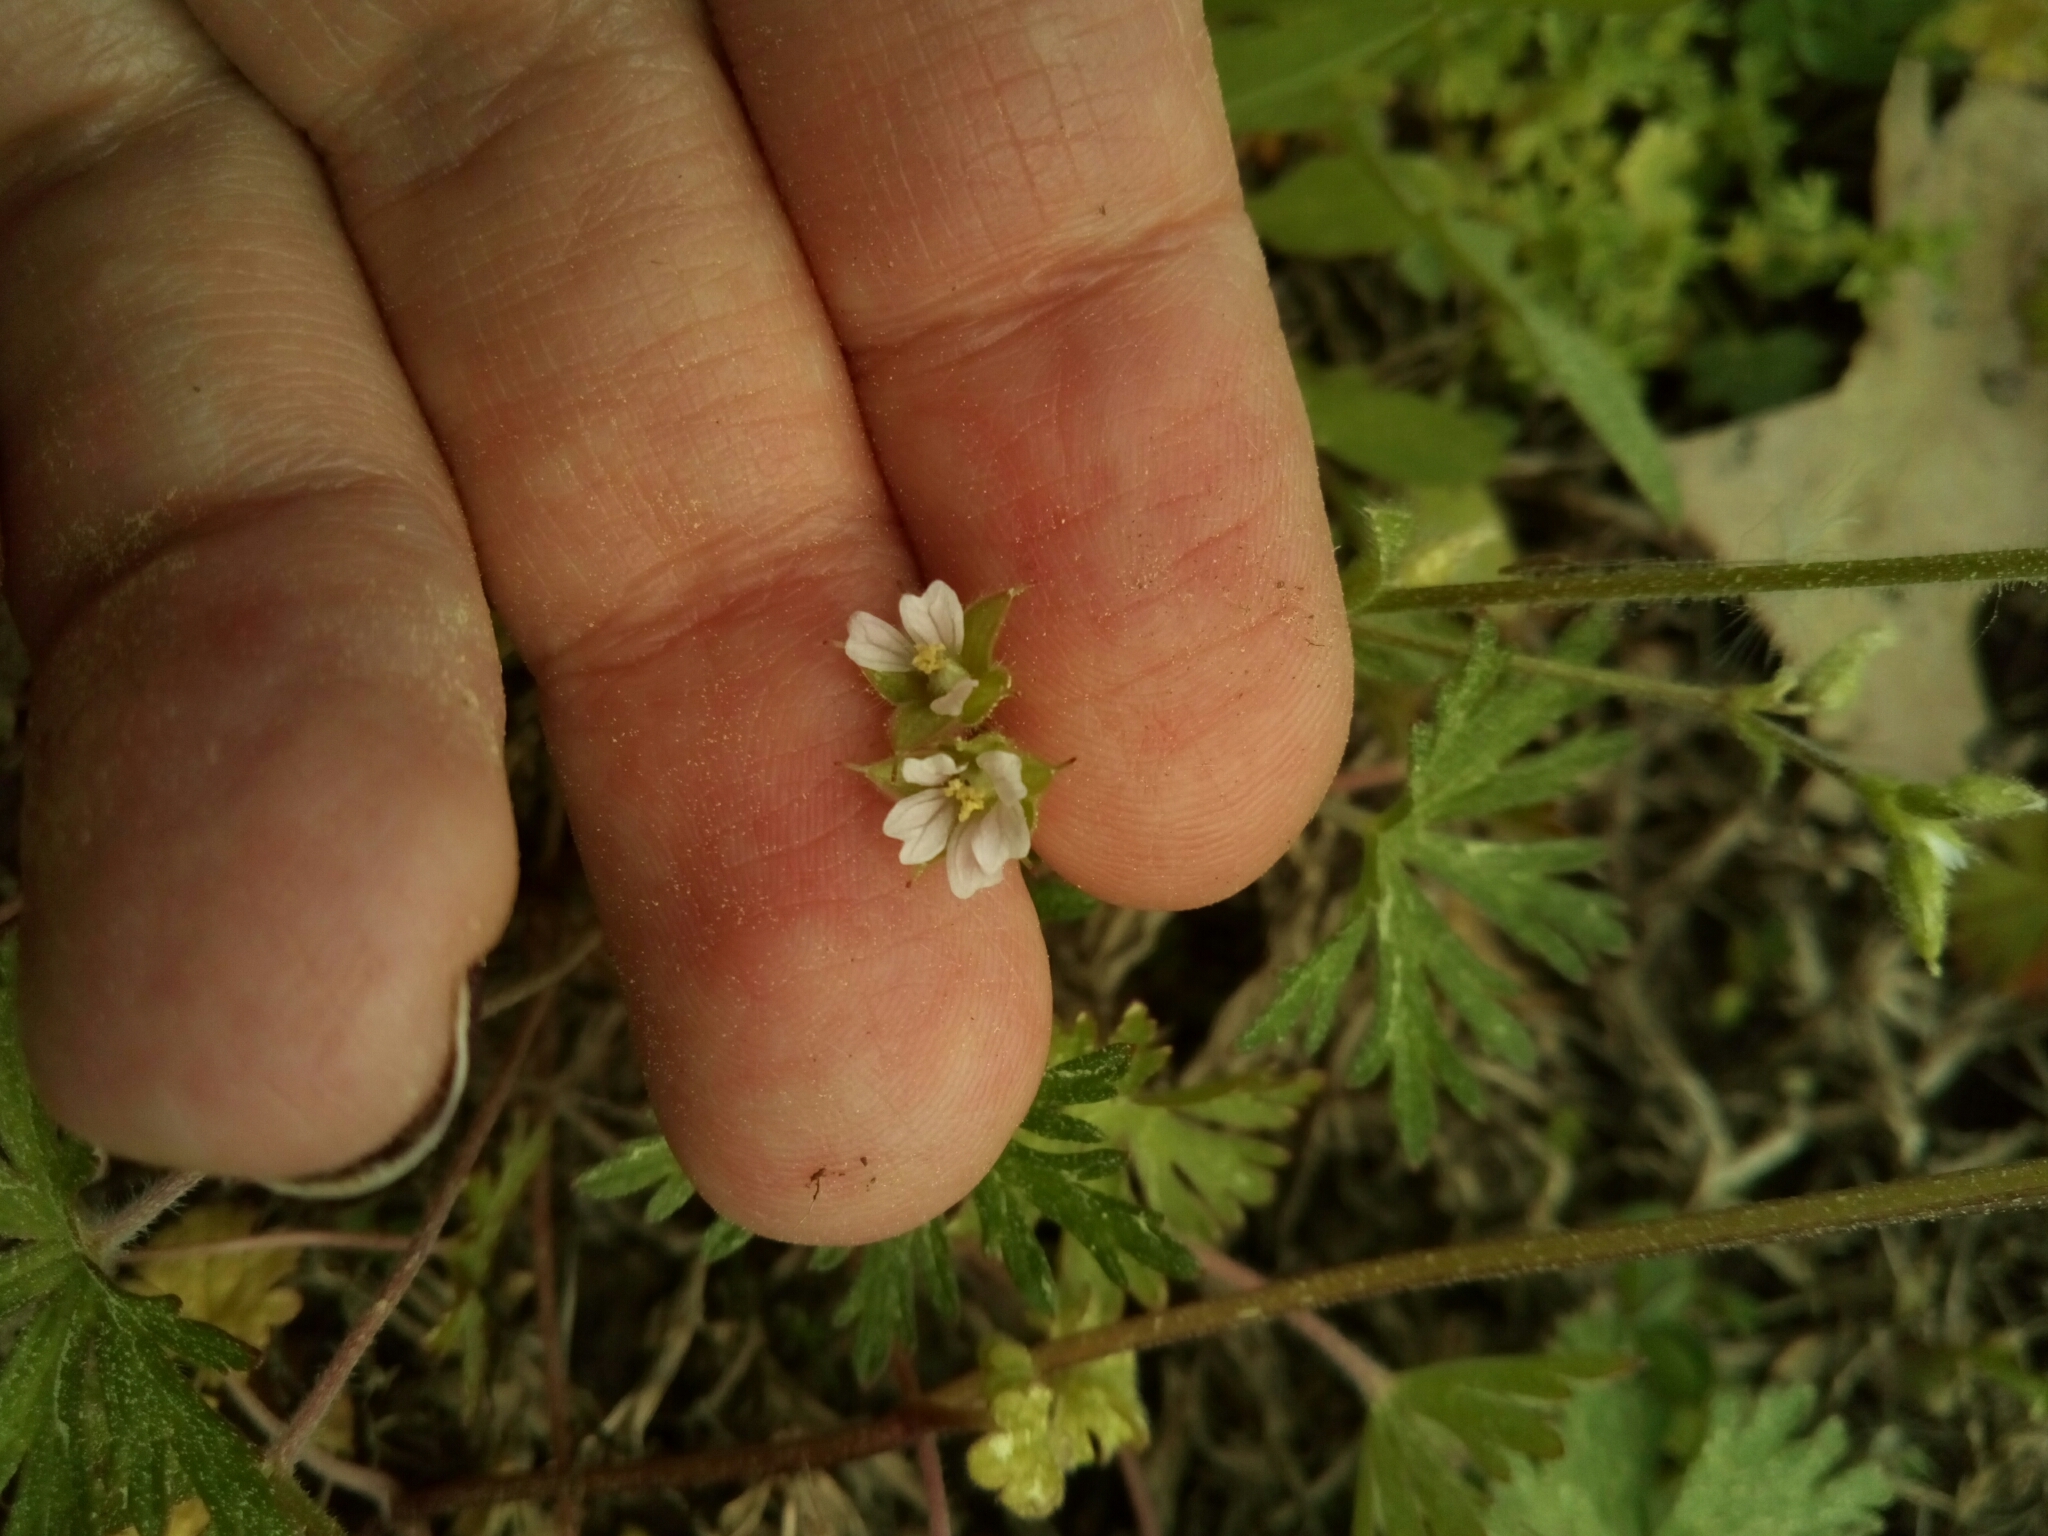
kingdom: Plantae
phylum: Tracheophyta
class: Magnoliopsida
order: Geraniales
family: Geraniaceae
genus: Geranium
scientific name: Geranium carolinianum
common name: Carolina crane's-bill
